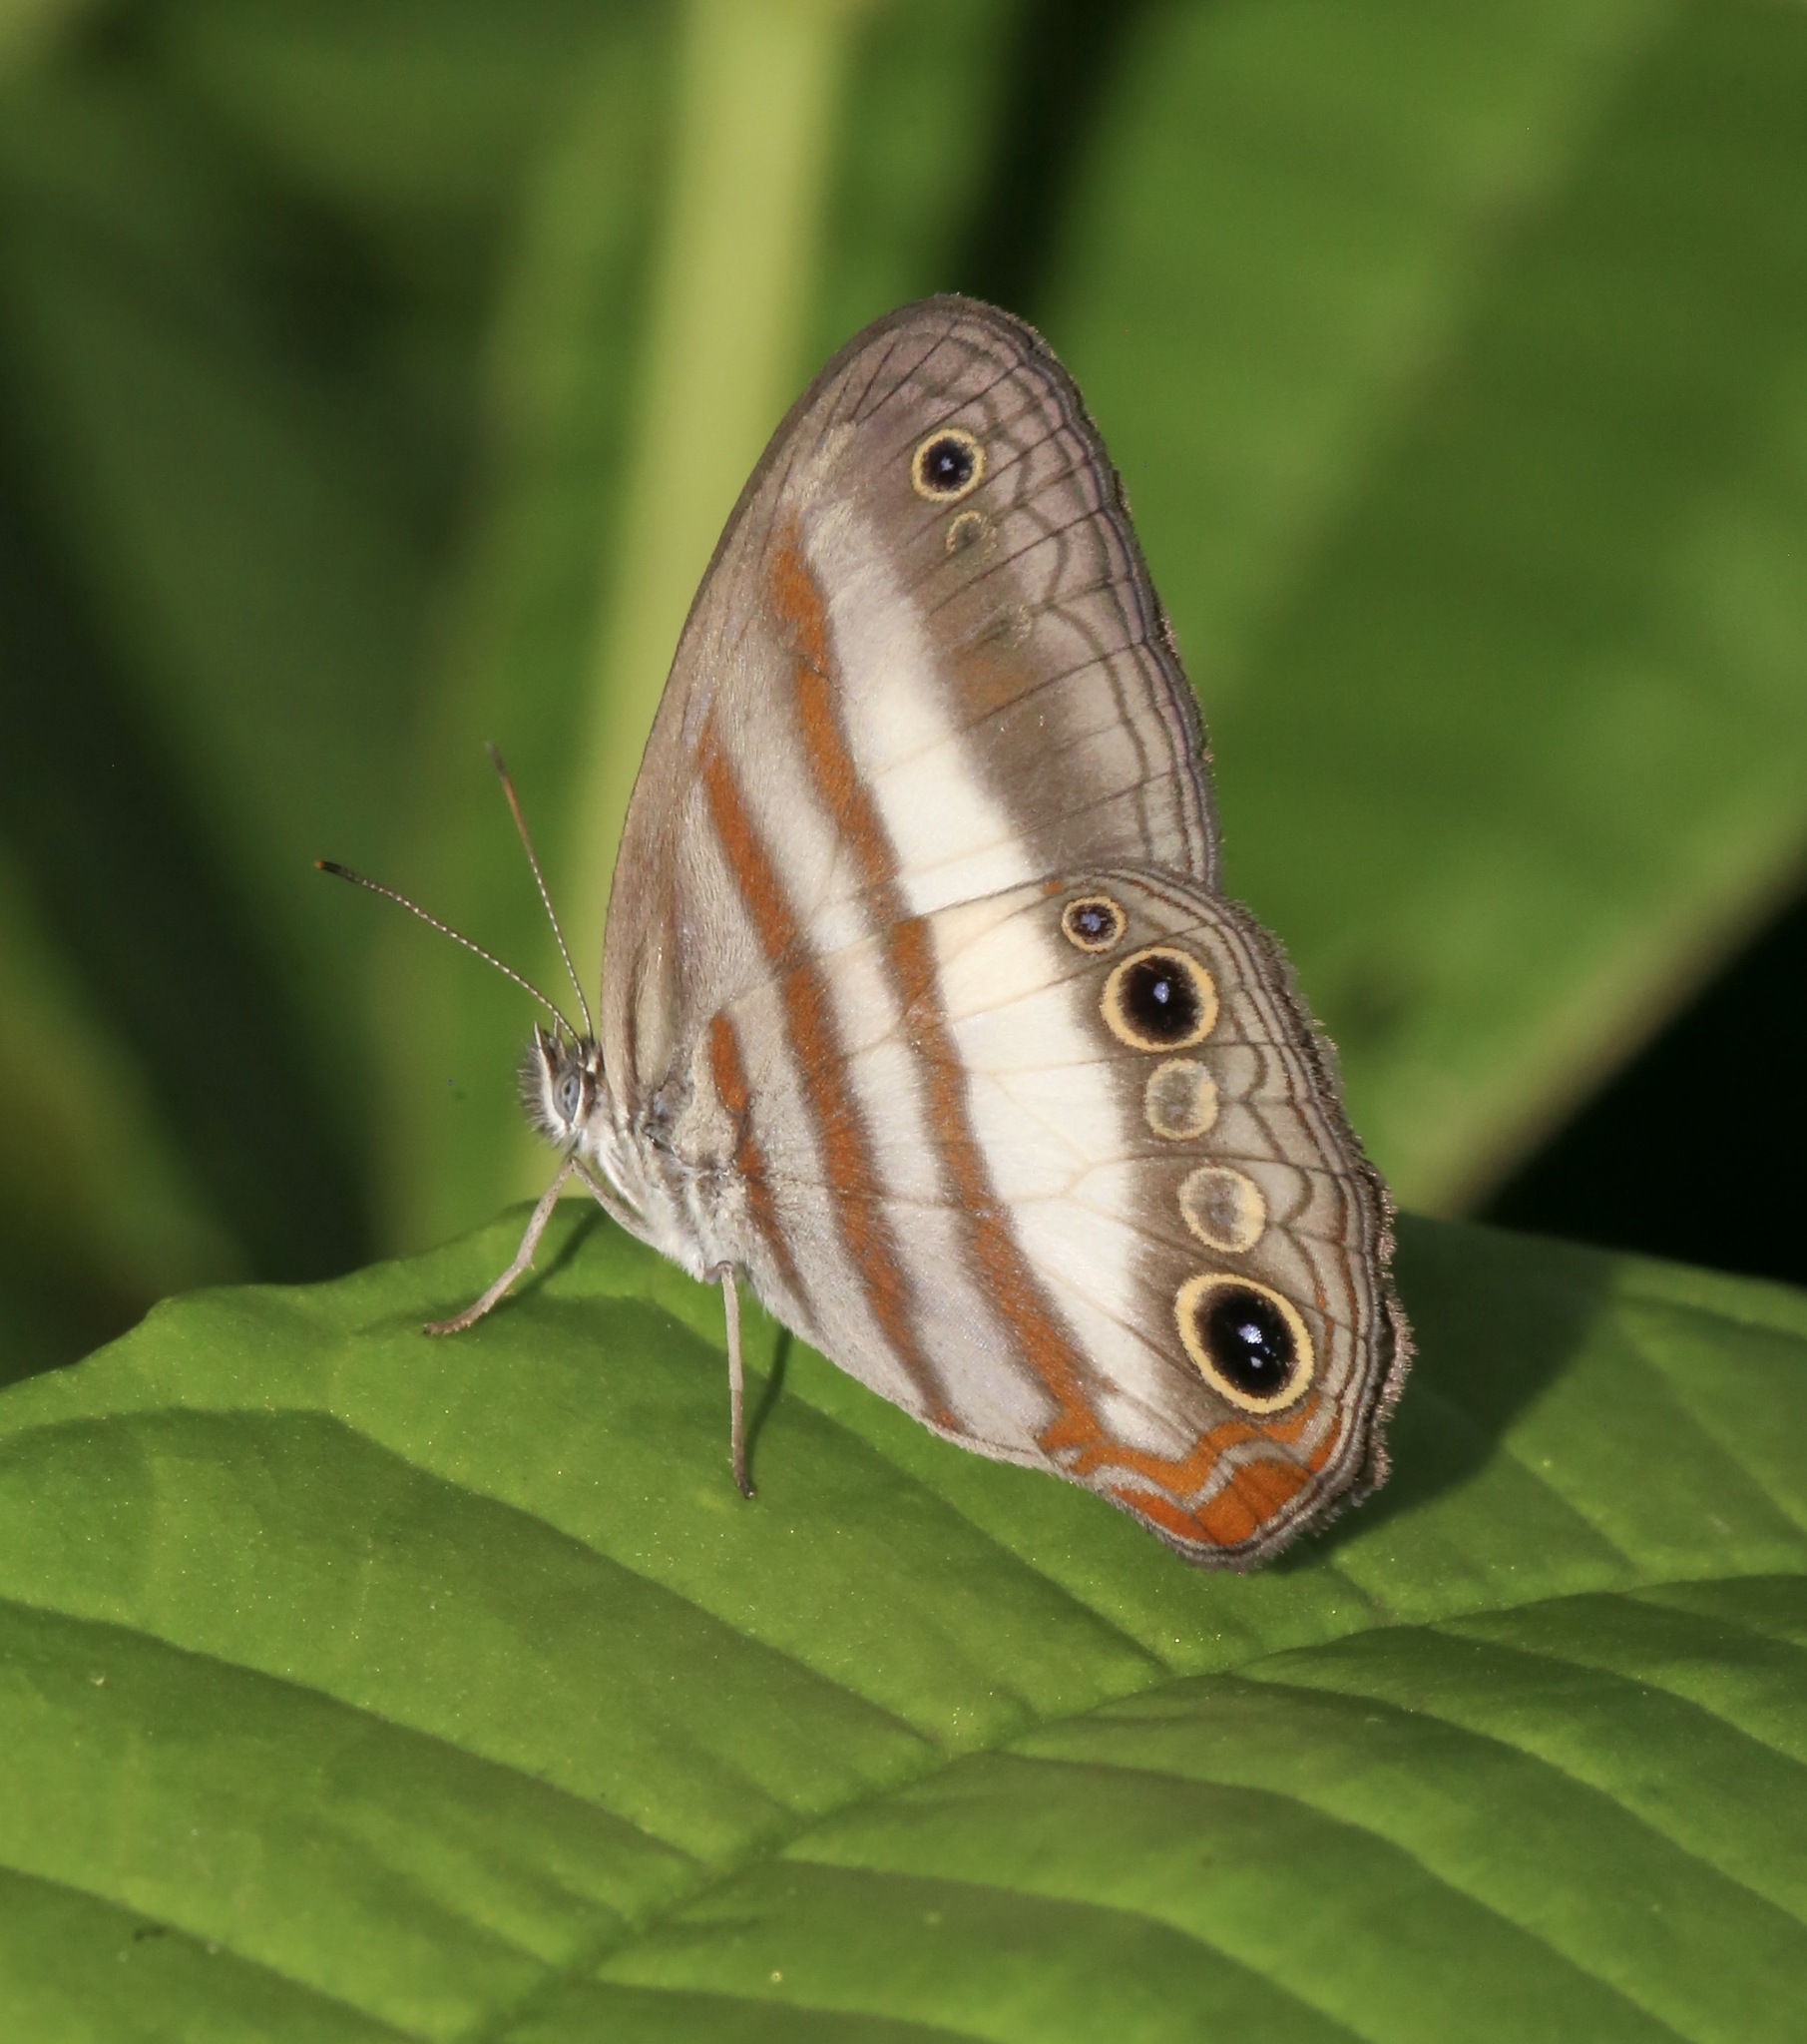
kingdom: Animalia
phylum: Arthropoda
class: Insecta
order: Lepidoptera
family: Nymphalidae
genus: Pareuptychia
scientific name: Pareuptychia metaleuca
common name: White-banded satyr
